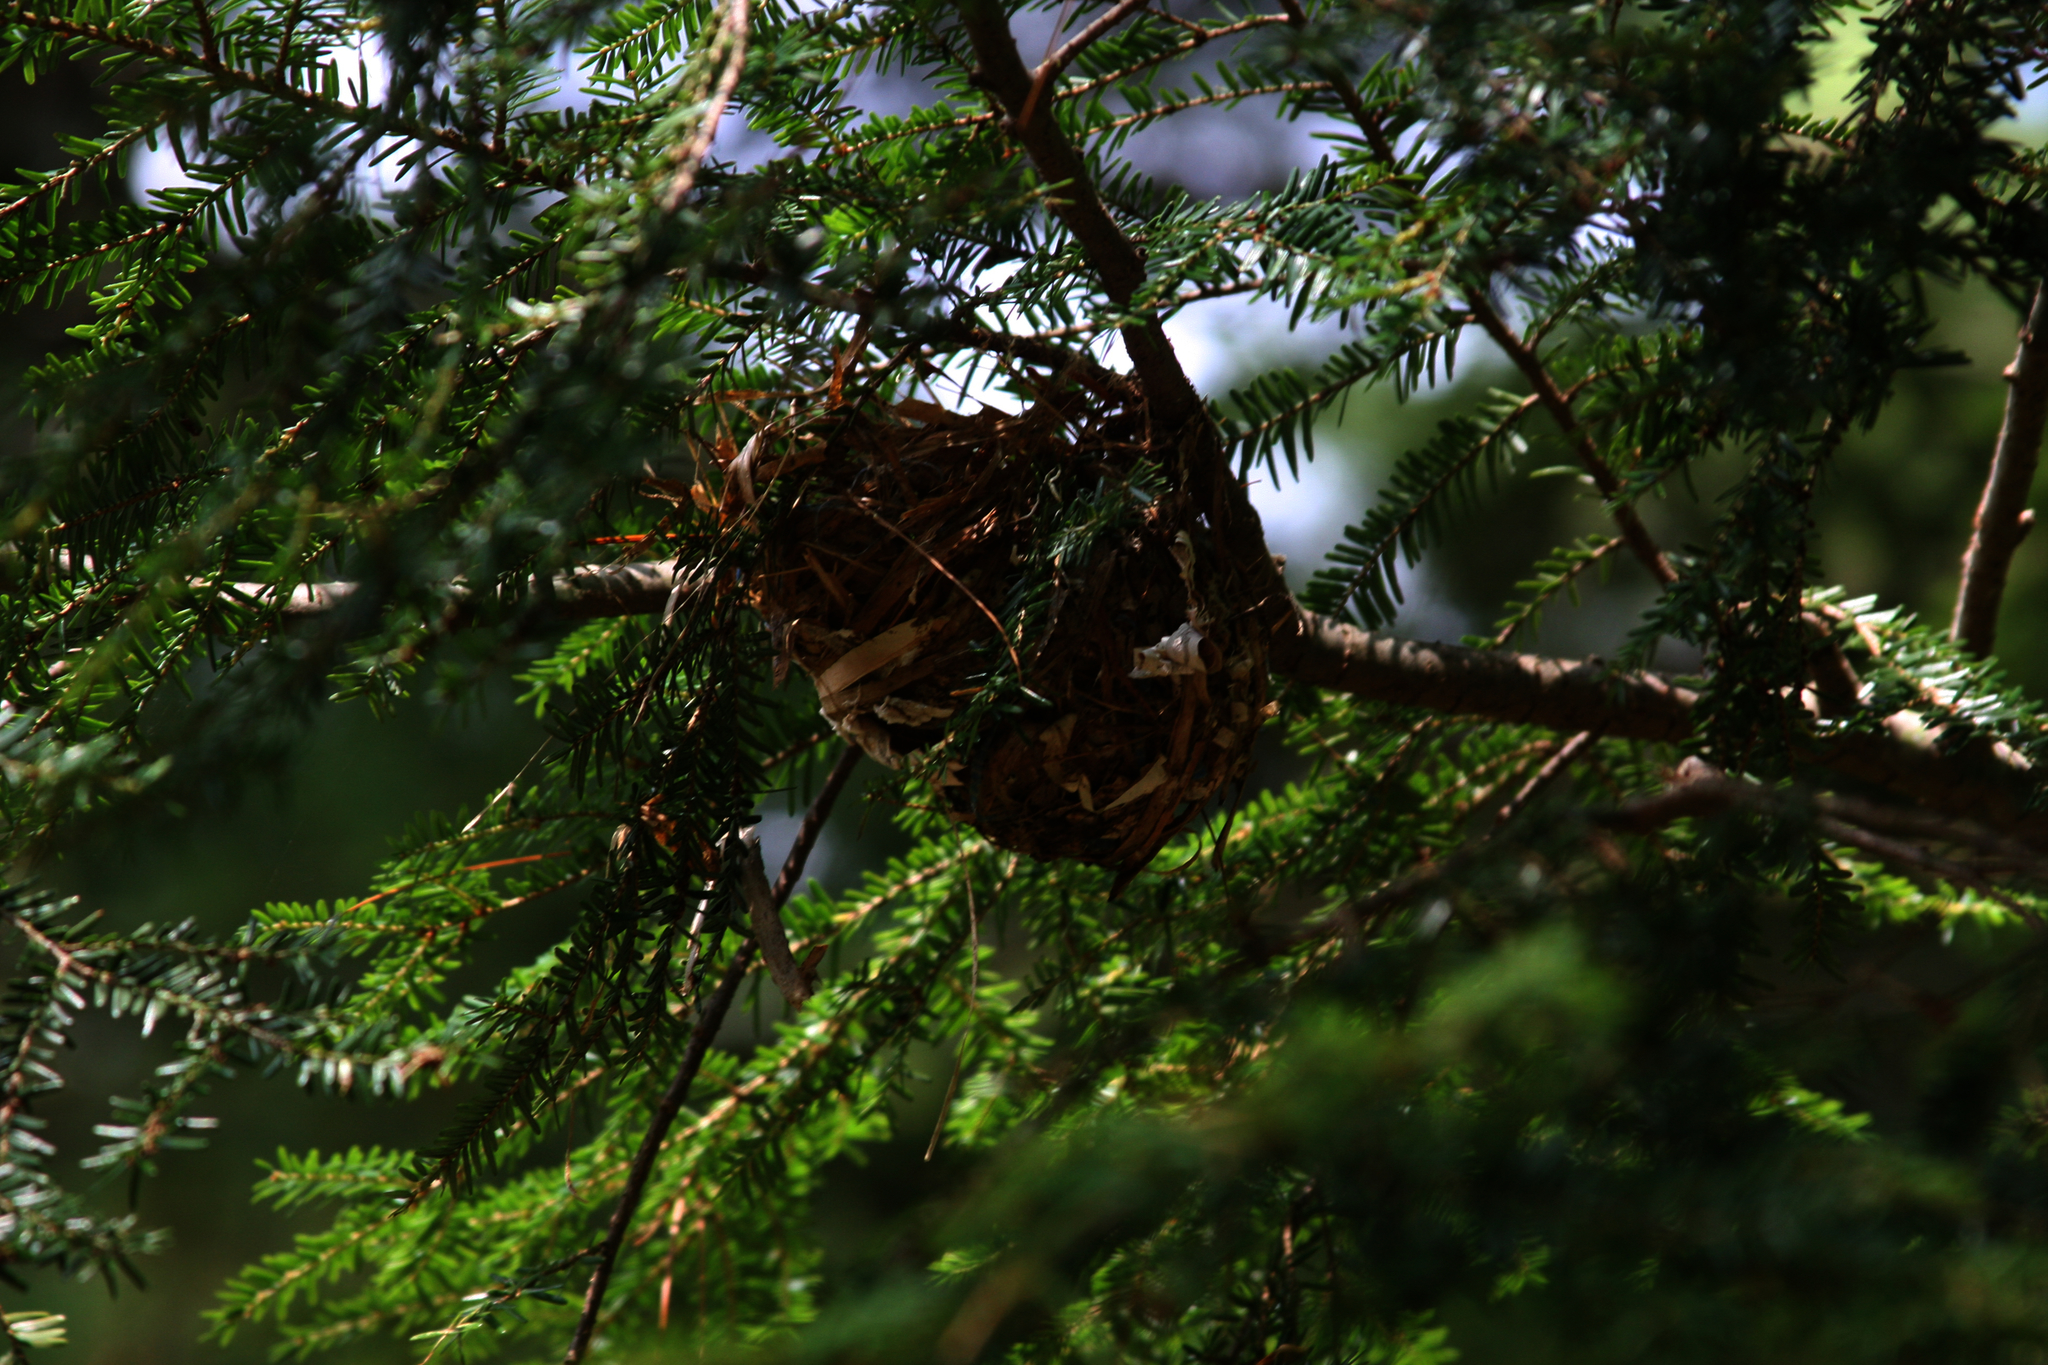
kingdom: Plantae
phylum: Tracheophyta
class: Pinopsida
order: Pinales
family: Pinaceae
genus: Tsuga
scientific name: Tsuga canadensis
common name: Eastern hemlock
